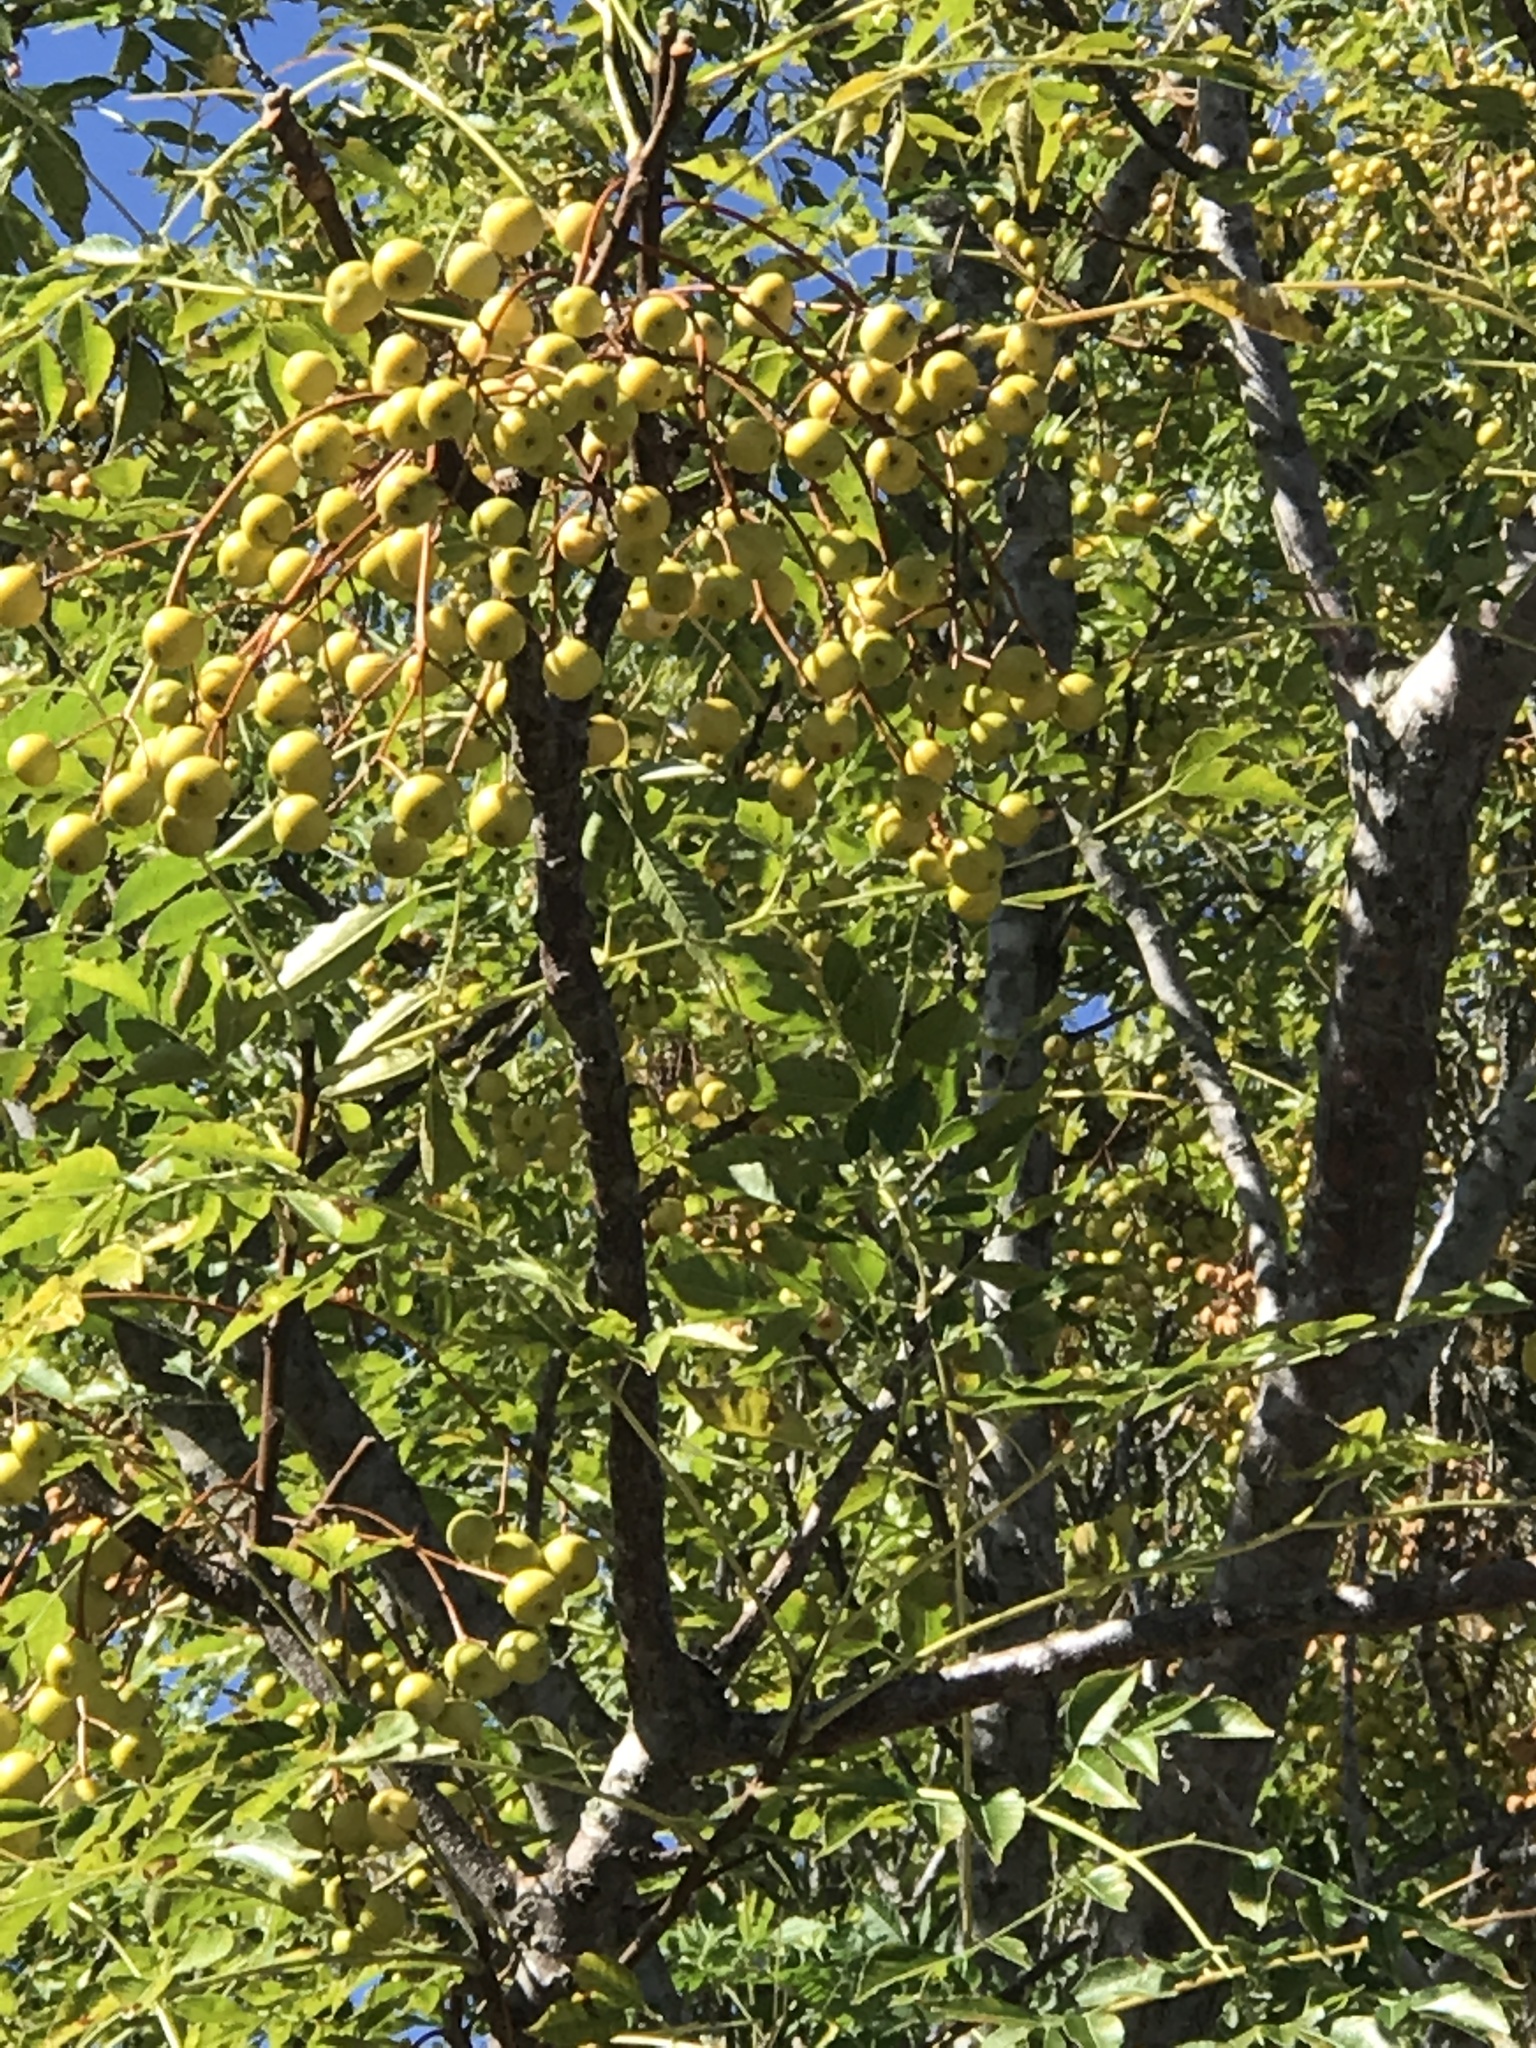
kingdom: Plantae
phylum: Tracheophyta
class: Magnoliopsida
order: Sapindales
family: Meliaceae
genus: Melia
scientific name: Melia azedarach
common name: Chinaberrytree
